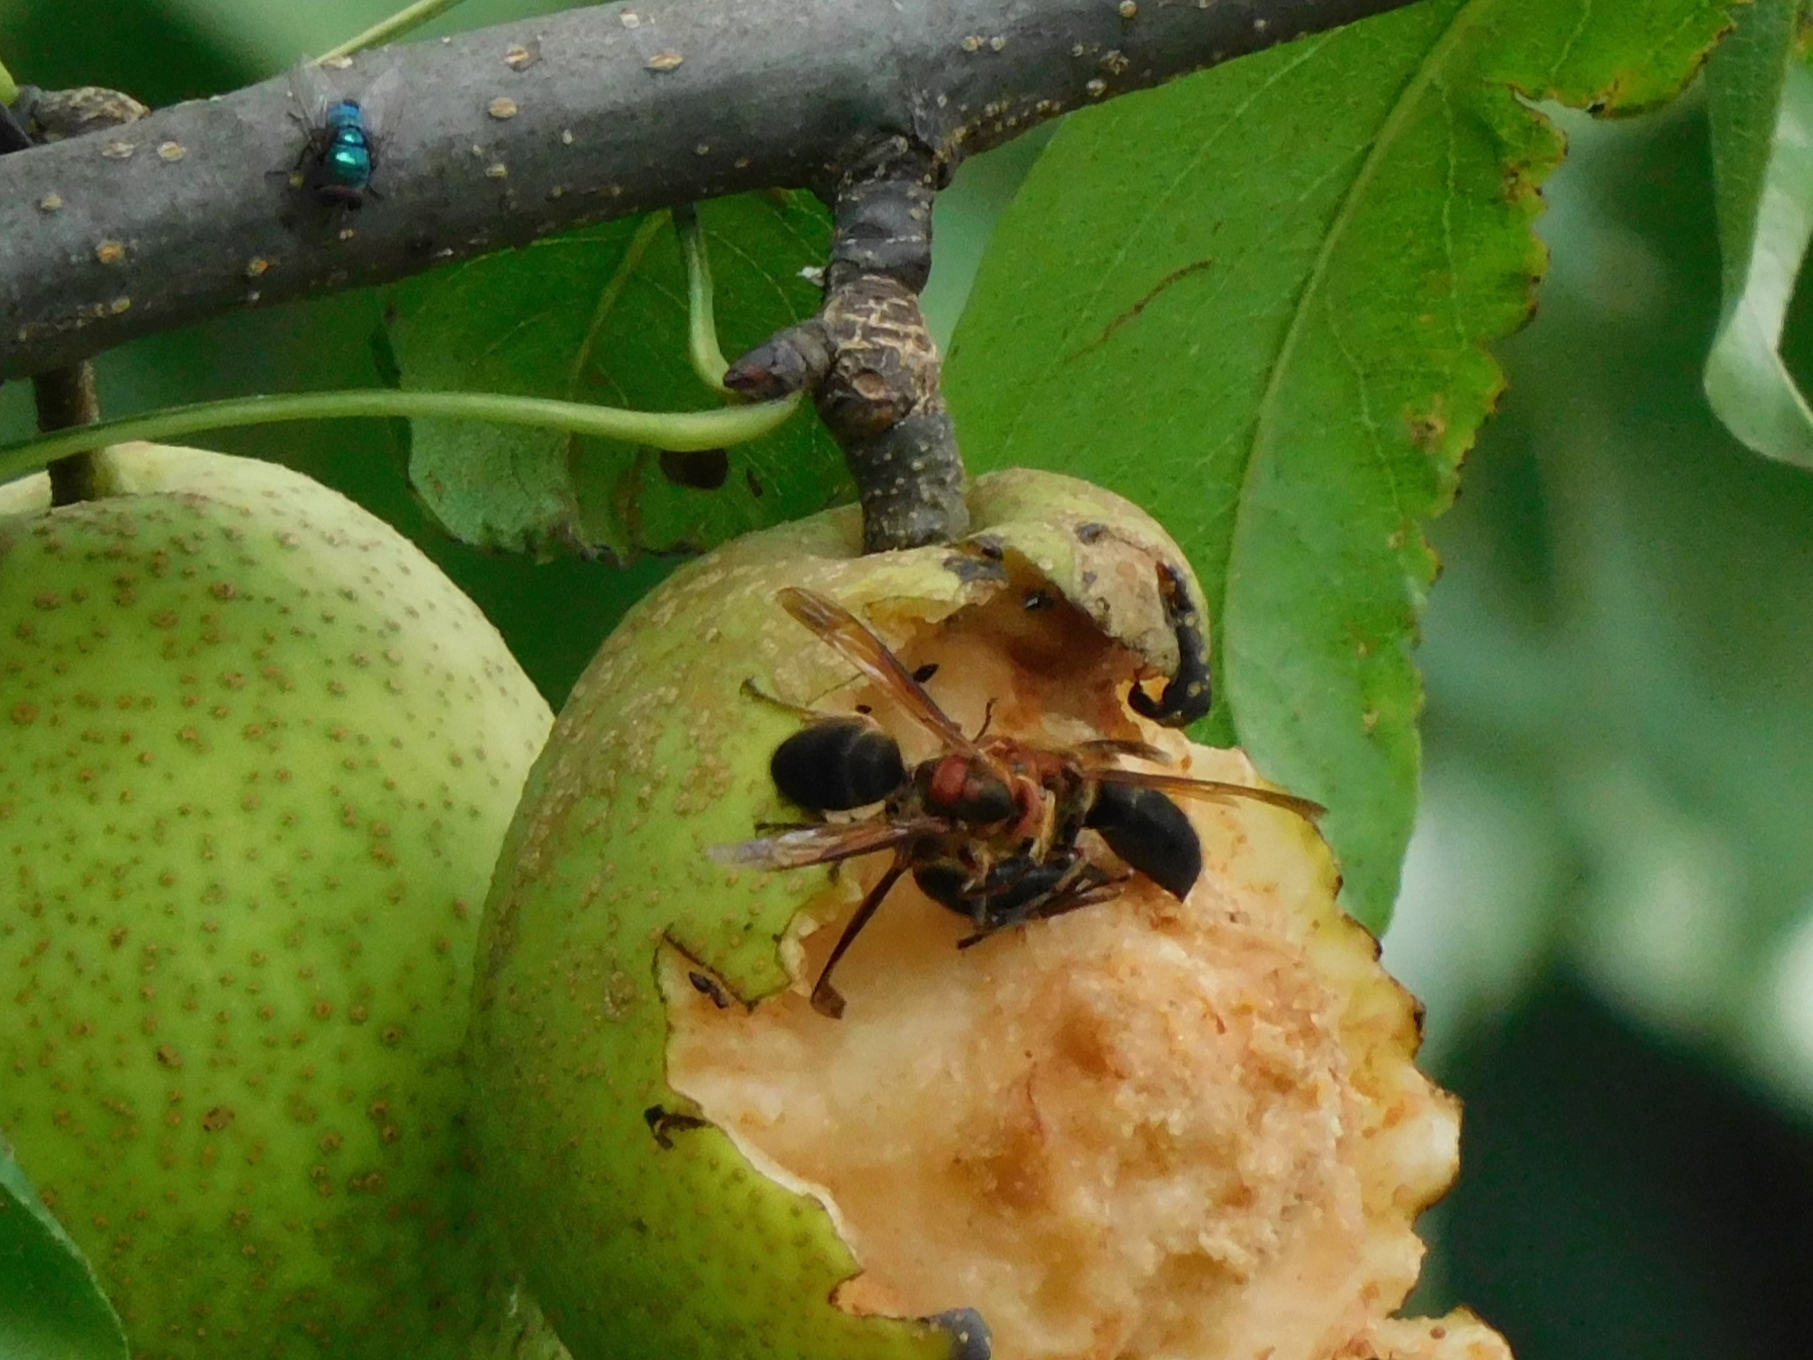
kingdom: Animalia
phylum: Arthropoda
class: Insecta
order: Hymenoptera
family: Vespidae
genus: Vespa
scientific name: Vespa basalis
